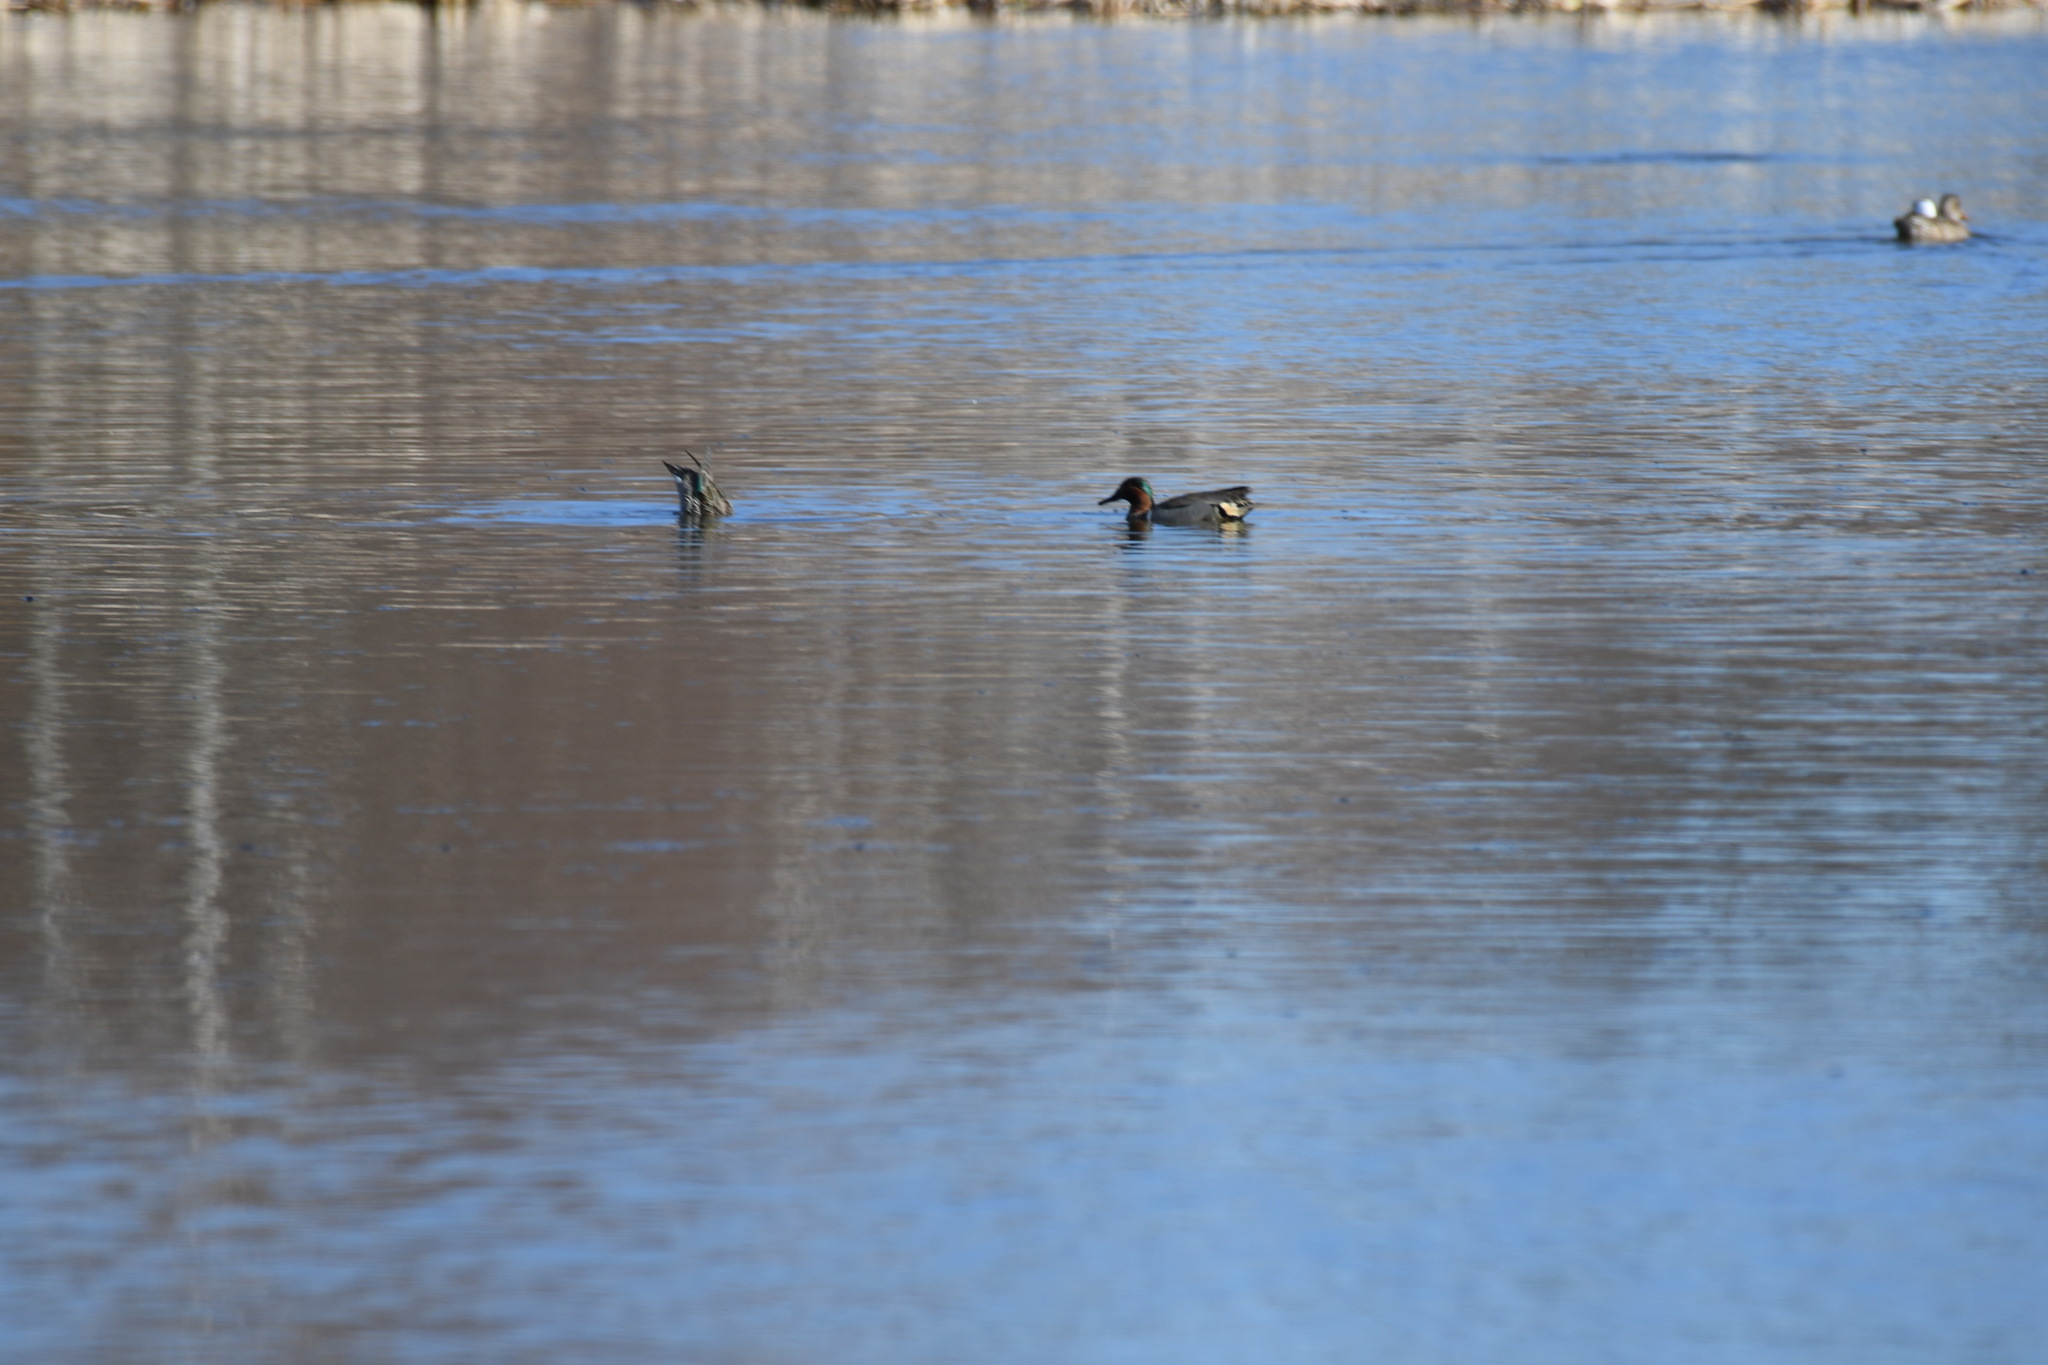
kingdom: Animalia
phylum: Chordata
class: Aves
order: Anseriformes
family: Anatidae
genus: Anas
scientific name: Anas crecca
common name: Eurasian teal
